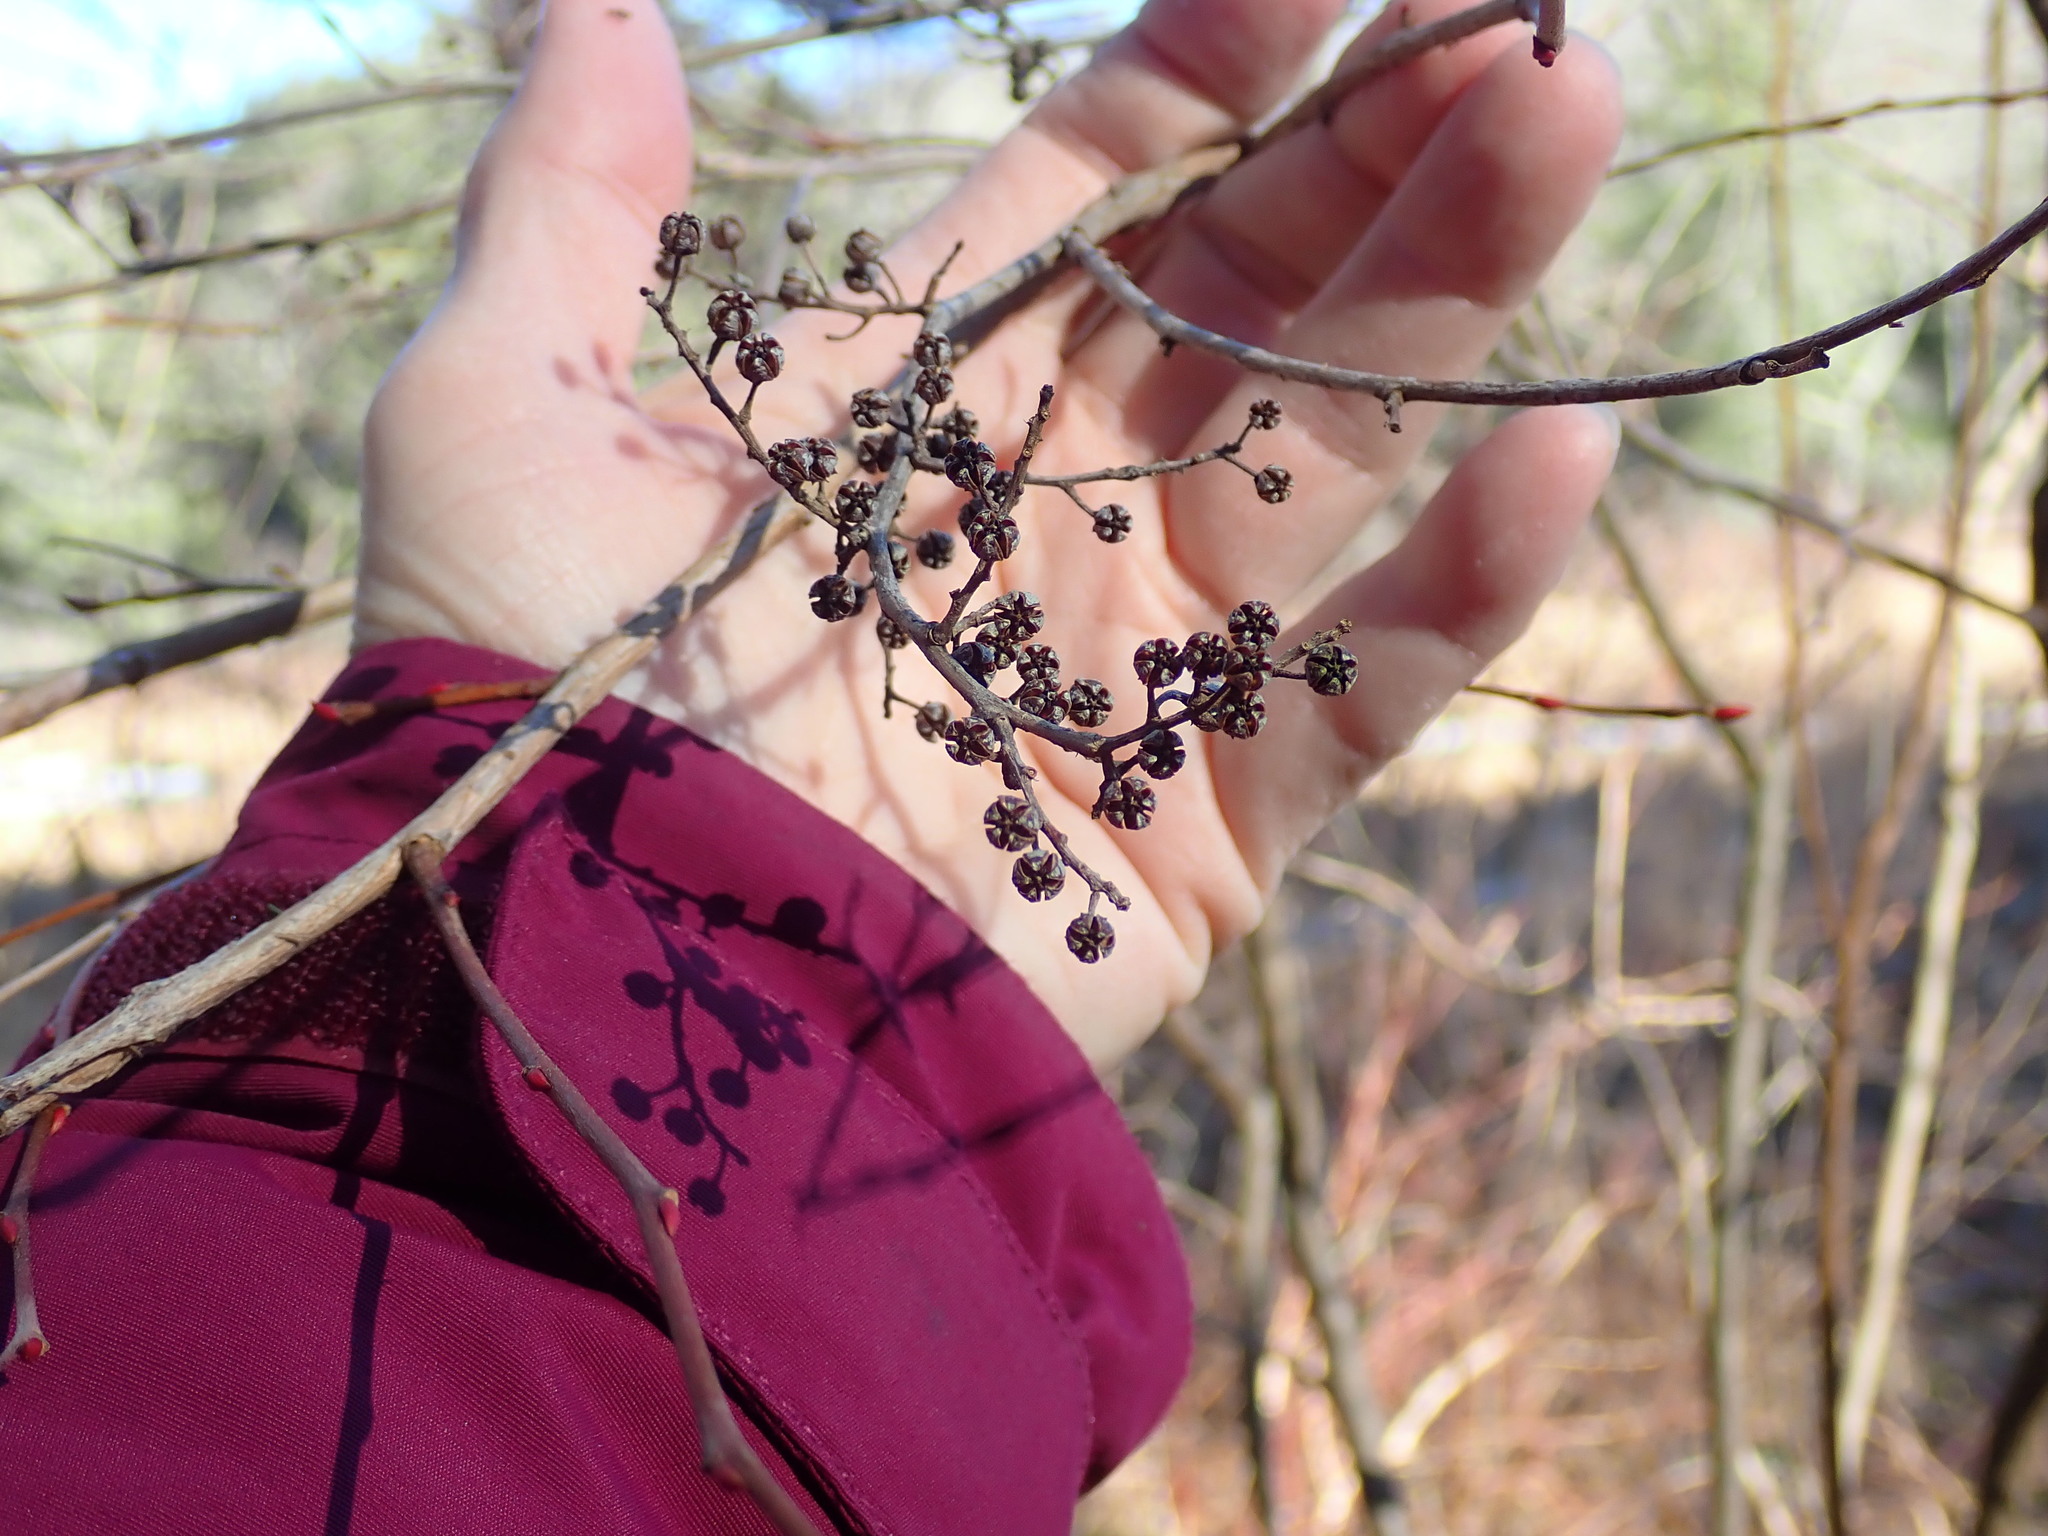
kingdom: Plantae
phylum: Tracheophyta
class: Magnoliopsida
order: Ericales
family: Ericaceae
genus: Lyonia
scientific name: Lyonia ligustrina
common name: Maleberry
